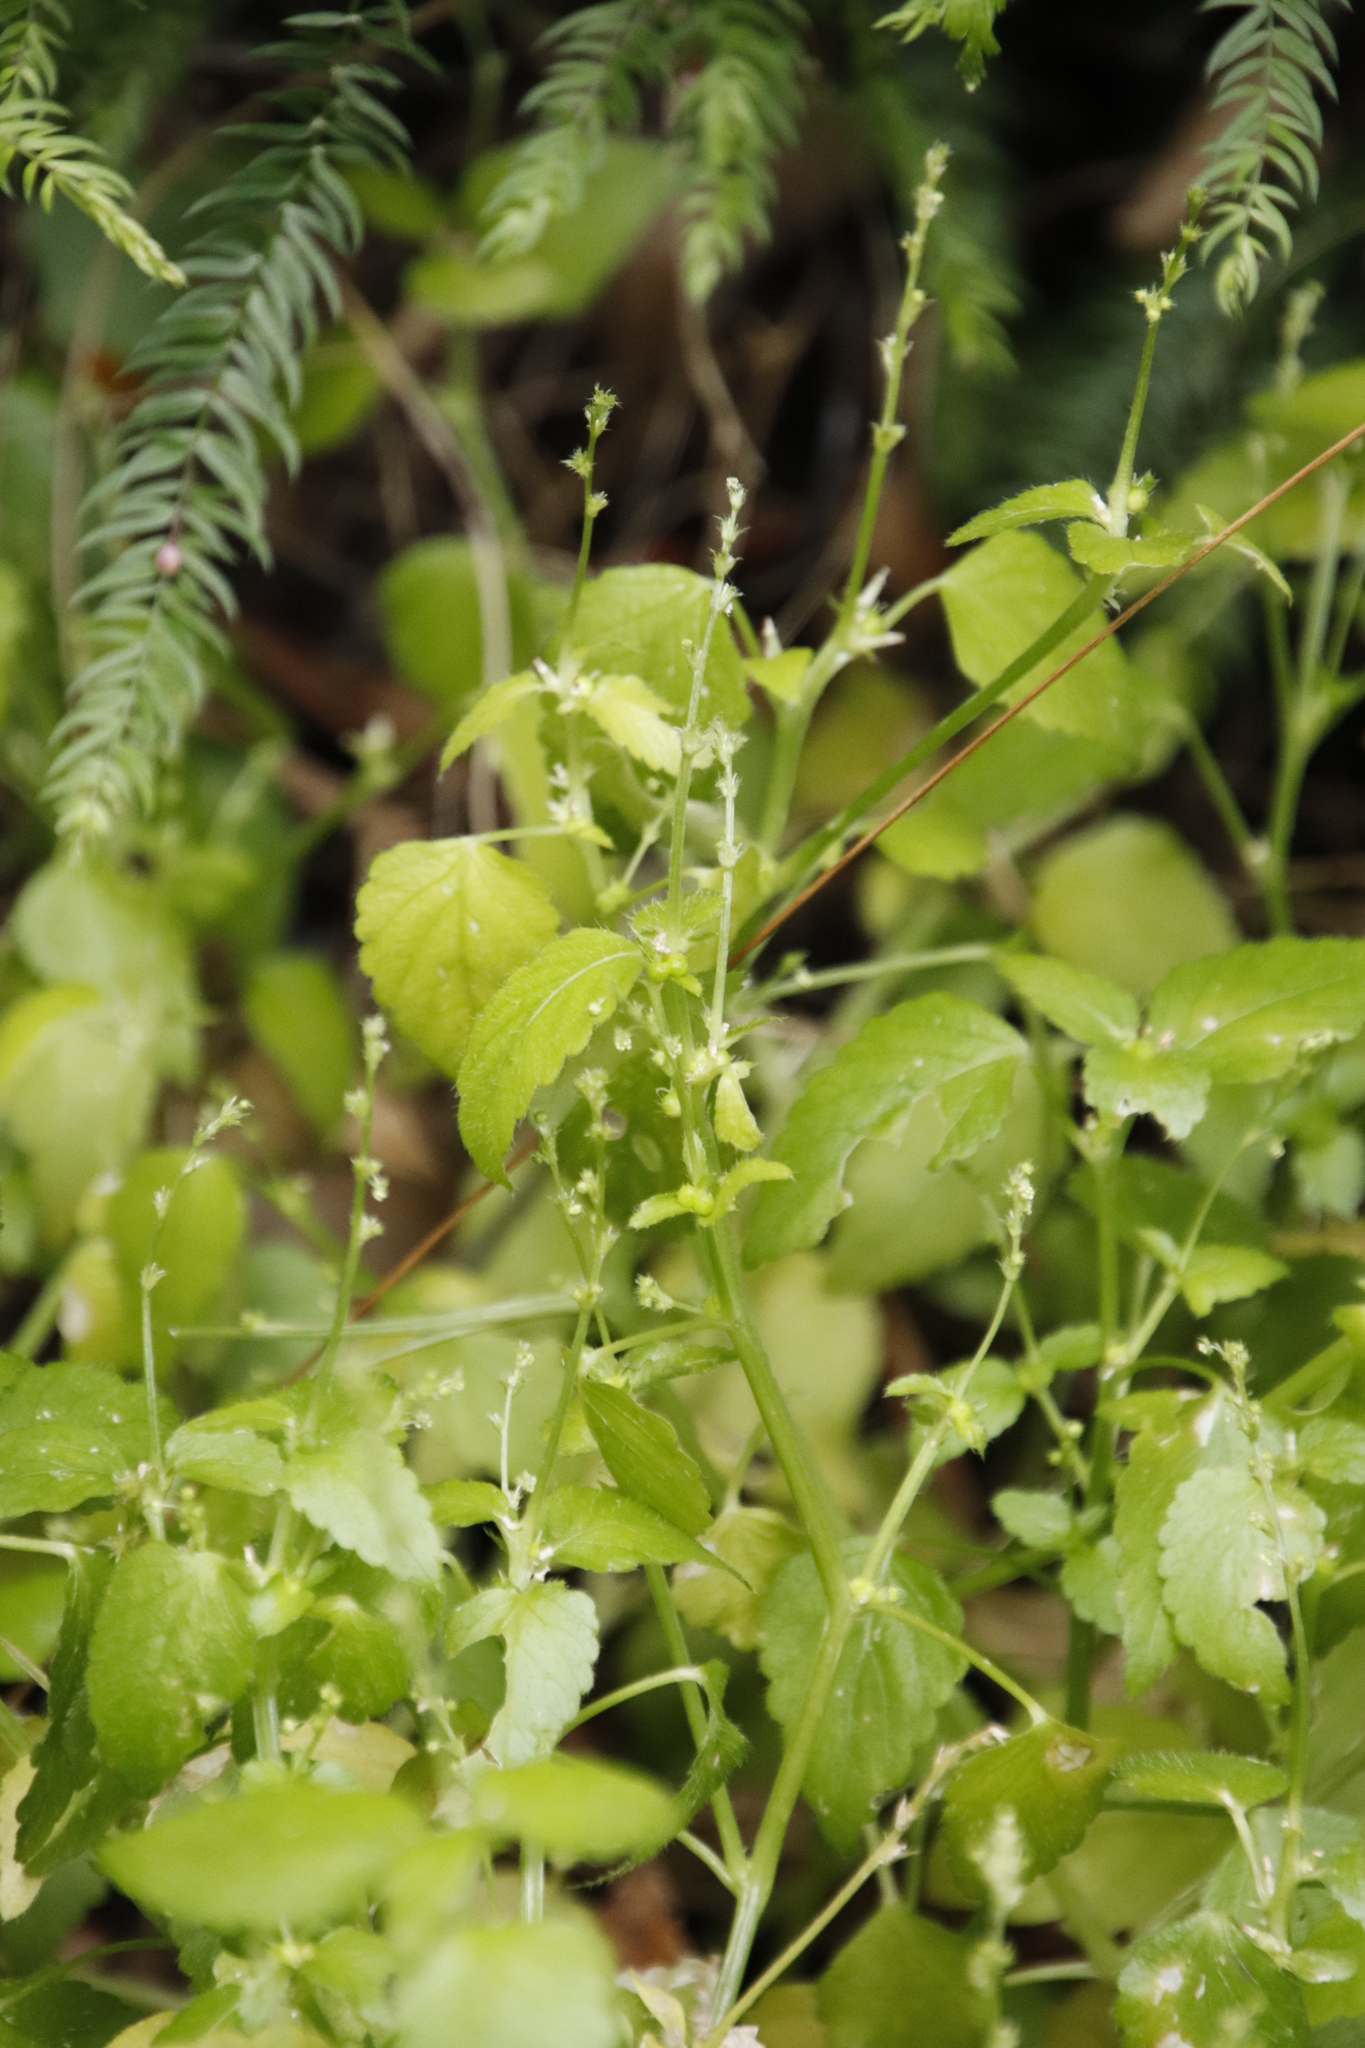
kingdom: Plantae
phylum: Tracheophyta
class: Magnoliopsida
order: Malpighiales
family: Euphorbiaceae
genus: Leidesia
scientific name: Leidesia procumbens
